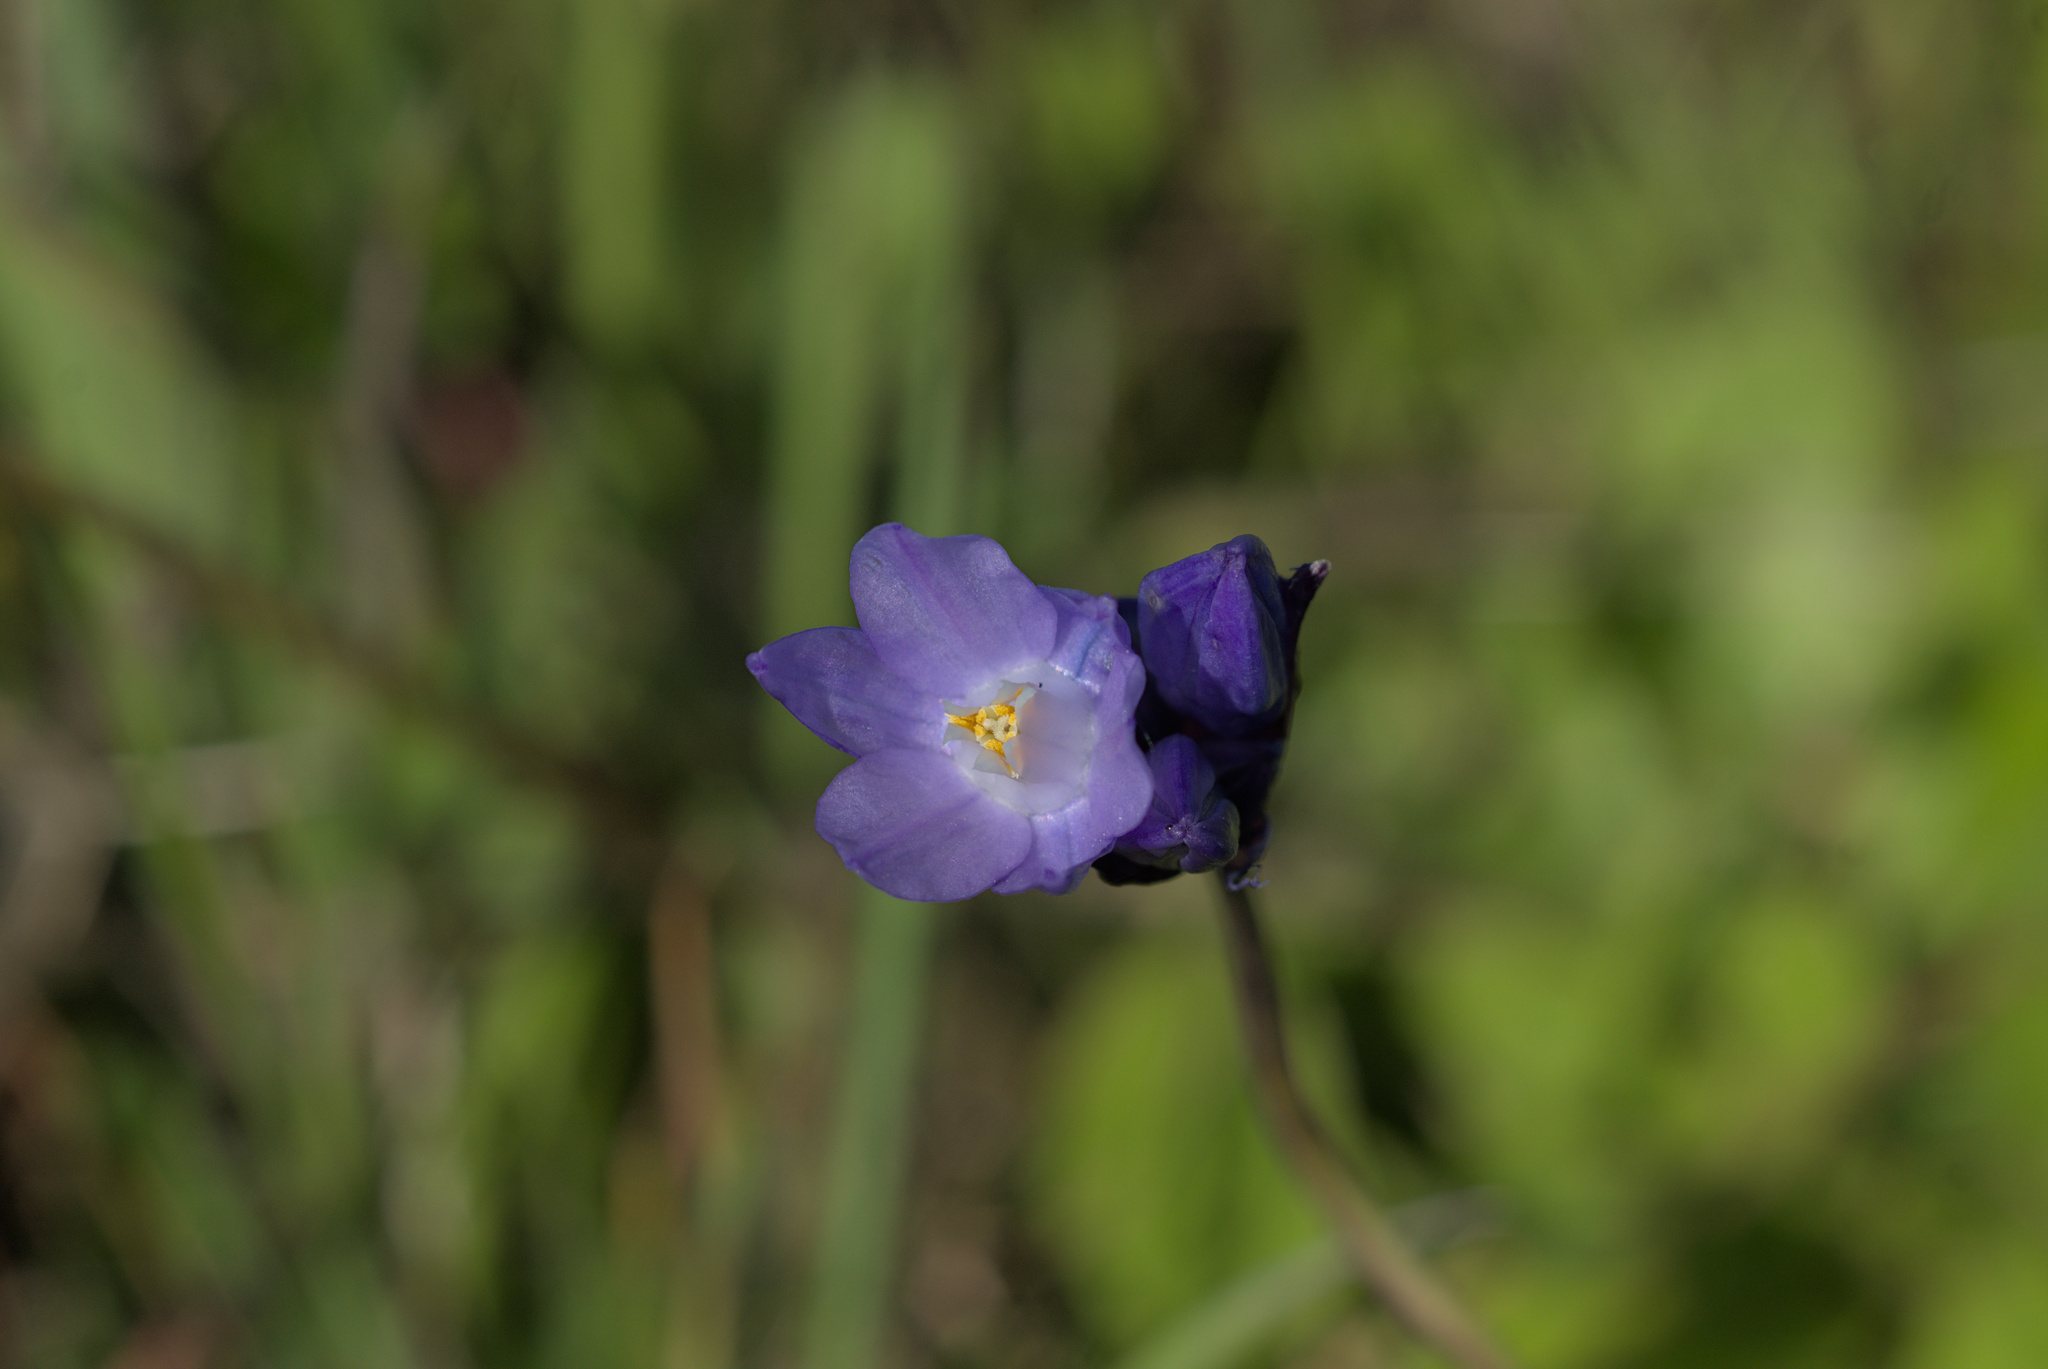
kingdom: Plantae
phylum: Tracheophyta
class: Liliopsida
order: Asparagales
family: Asparagaceae
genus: Dipterostemon
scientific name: Dipterostemon capitatus
